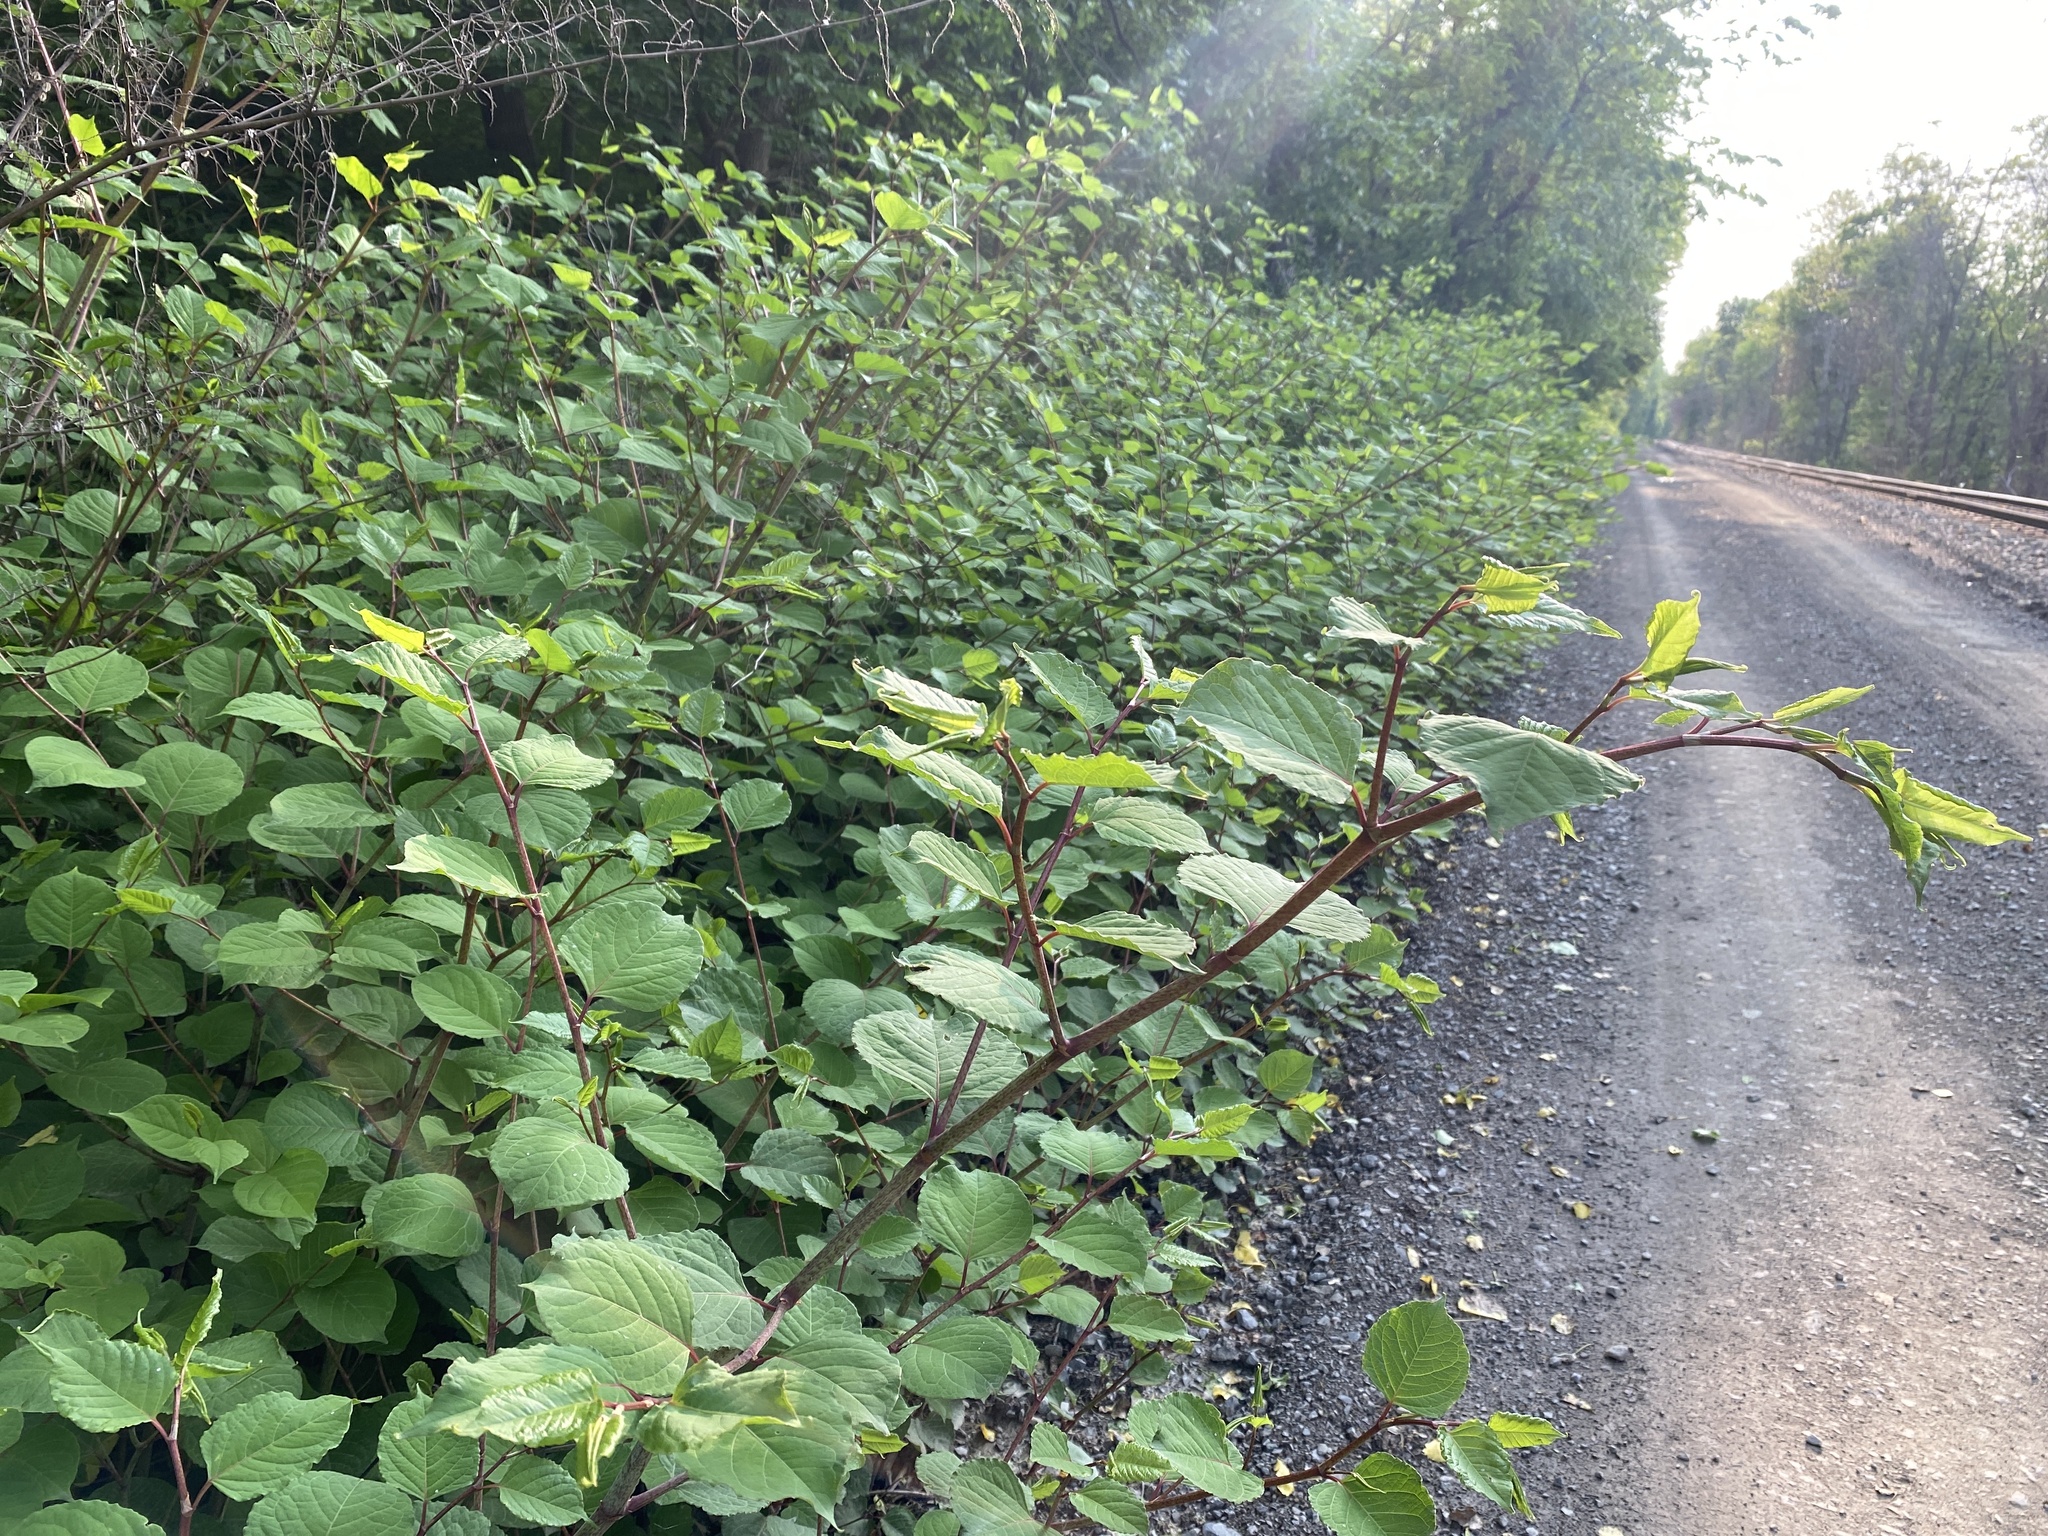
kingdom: Plantae
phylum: Tracheophyta
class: Magnoliopsida
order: Caryophyllales
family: Polygonaceae
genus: Reynoutria
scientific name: Reynoutria japonica
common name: Japanese knotweed
